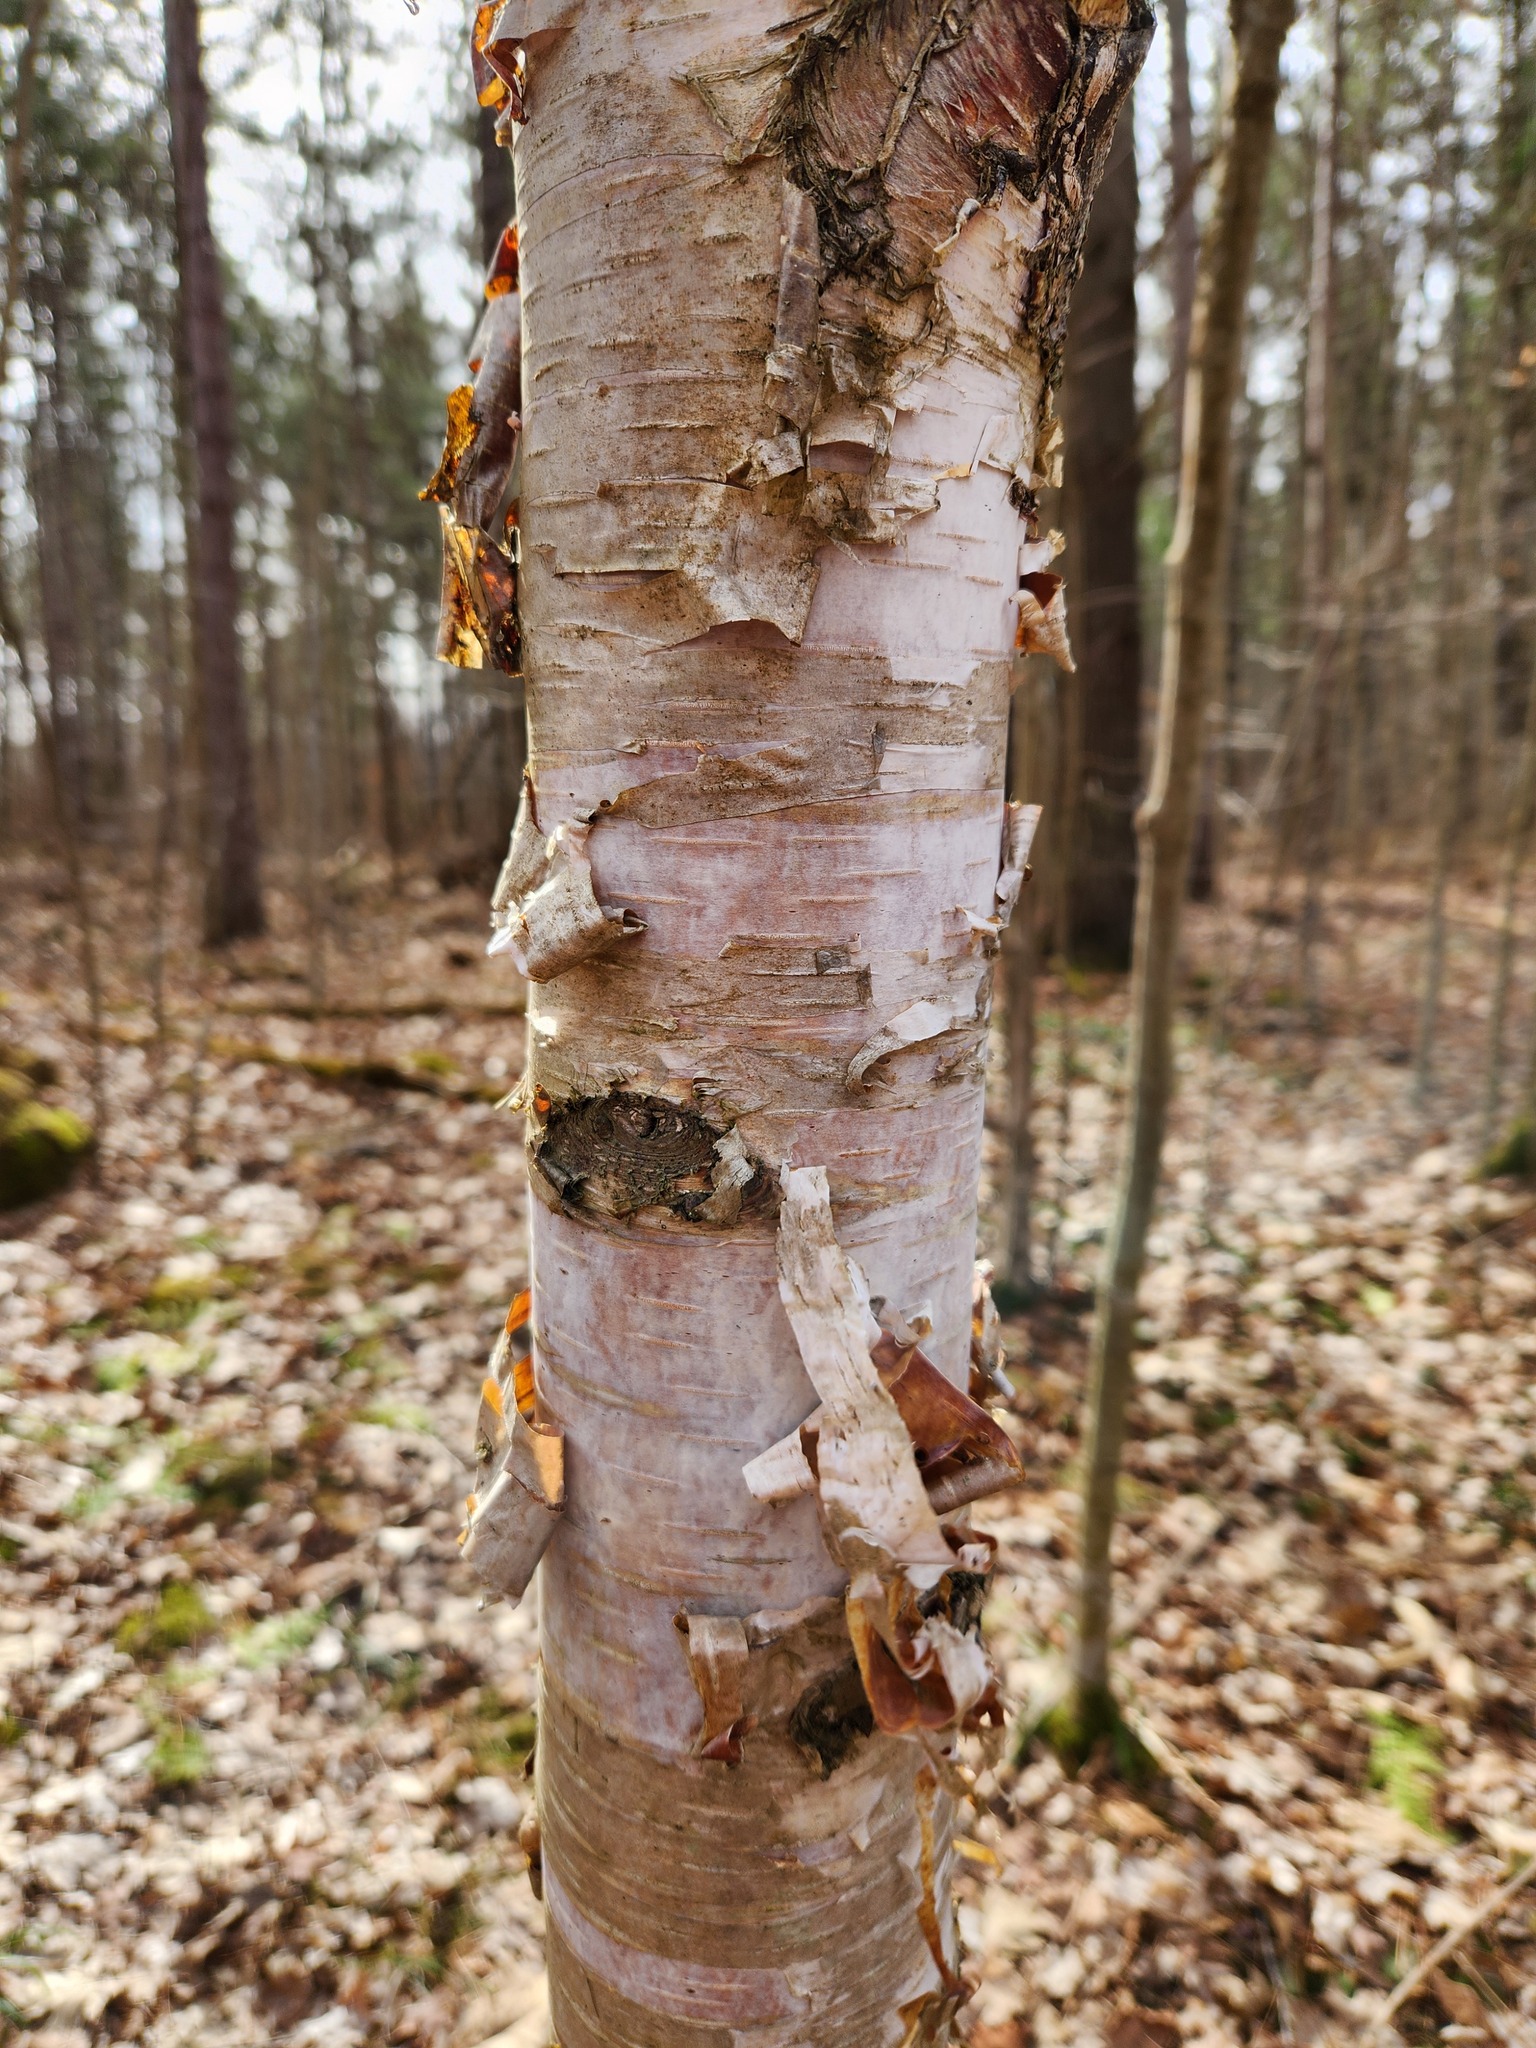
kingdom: Plantae
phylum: Tracheophyta
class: Magnoliopsida
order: Fagales
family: Betulaceae
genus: Betula
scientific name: Betula papyrifera
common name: Paper birch
